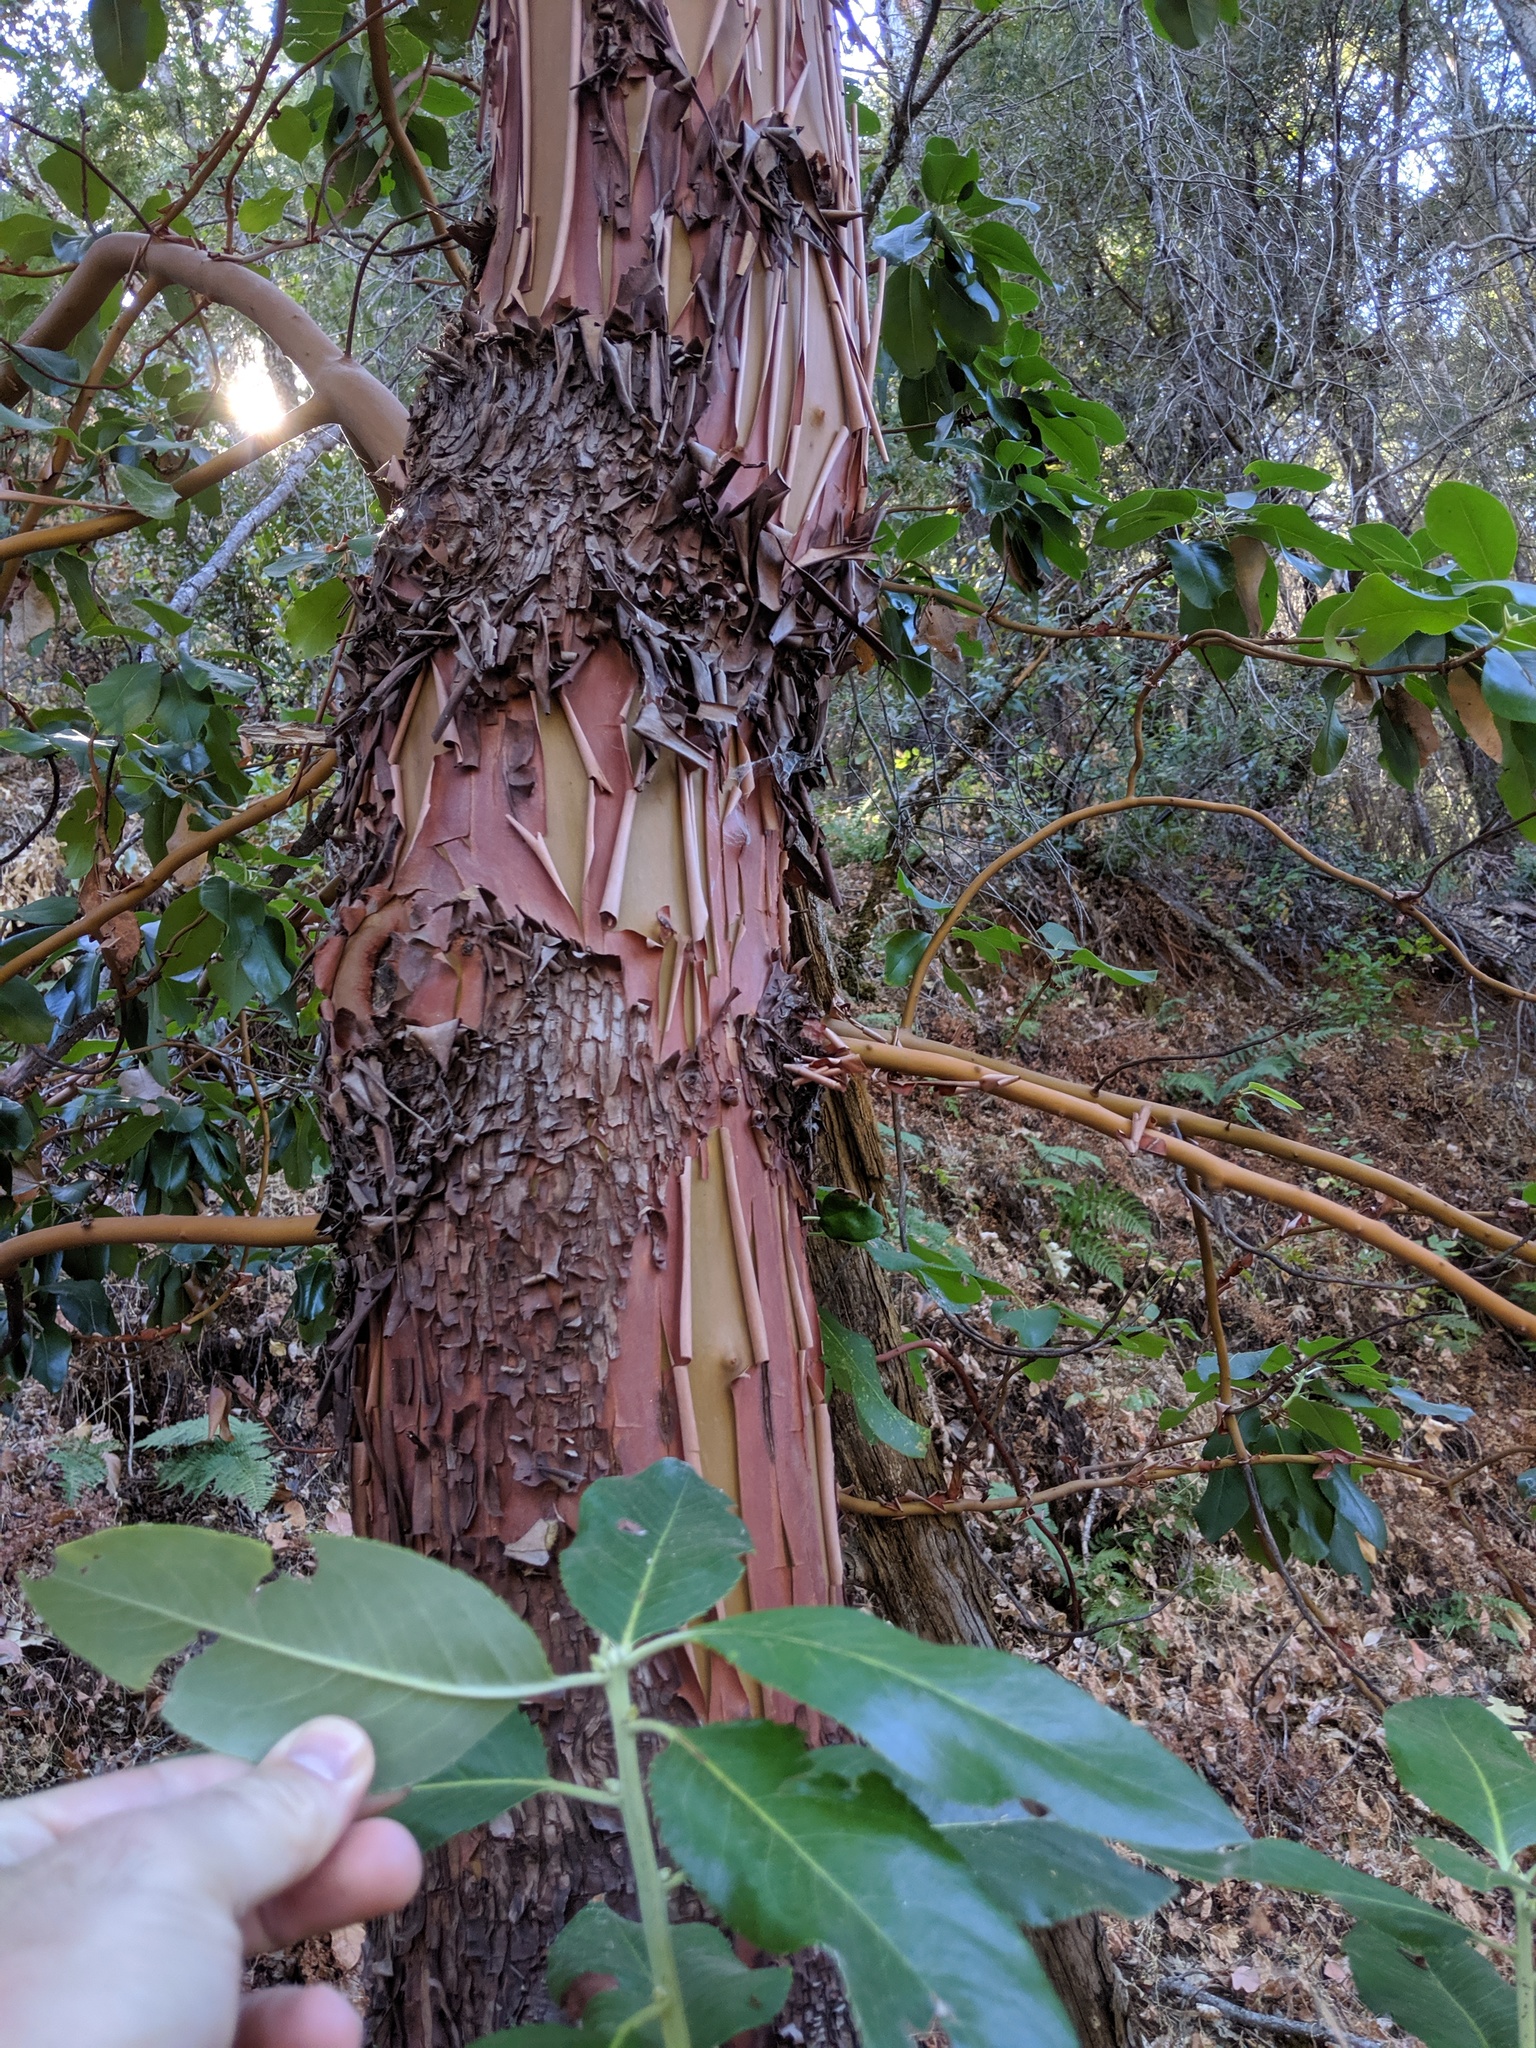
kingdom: Plantae
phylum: Tracheophyta
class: Magnoliopsida
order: Ericales
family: Ericaceae
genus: Arbutus
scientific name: Arbutus menziesii
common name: Pacific madrone
